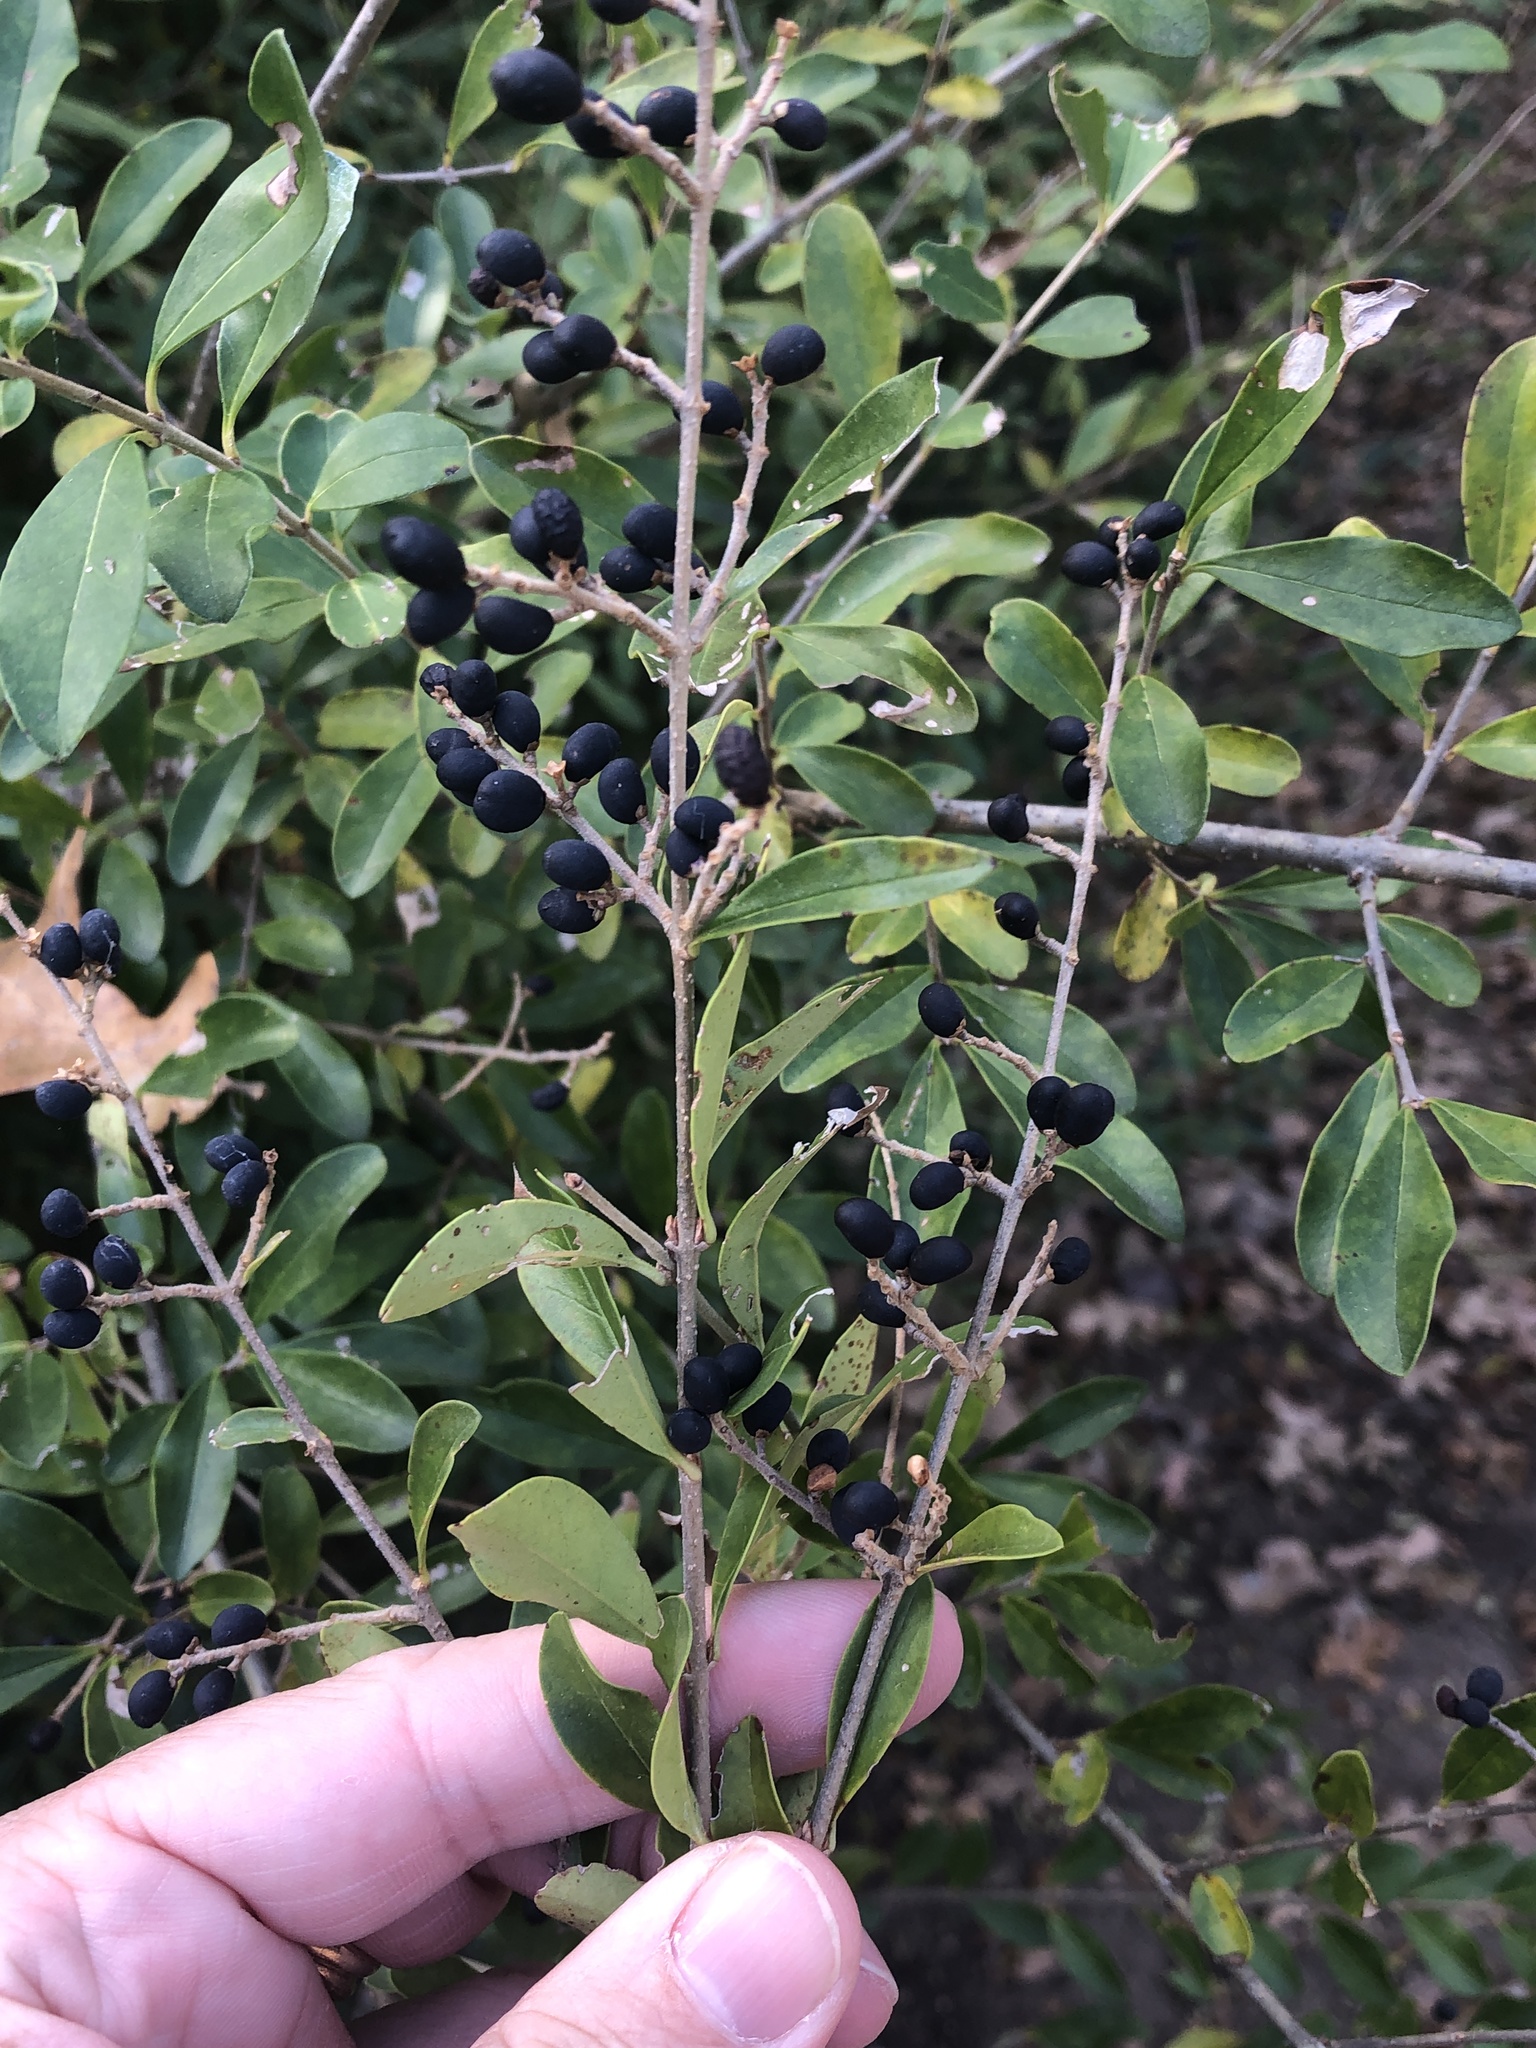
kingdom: Plantae
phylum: Tracheophyta
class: Magnoliopsida
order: Lamiales
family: Oleaceae
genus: Ligustrum
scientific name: Ligustrum quihoui
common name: Waxyleaf privet
